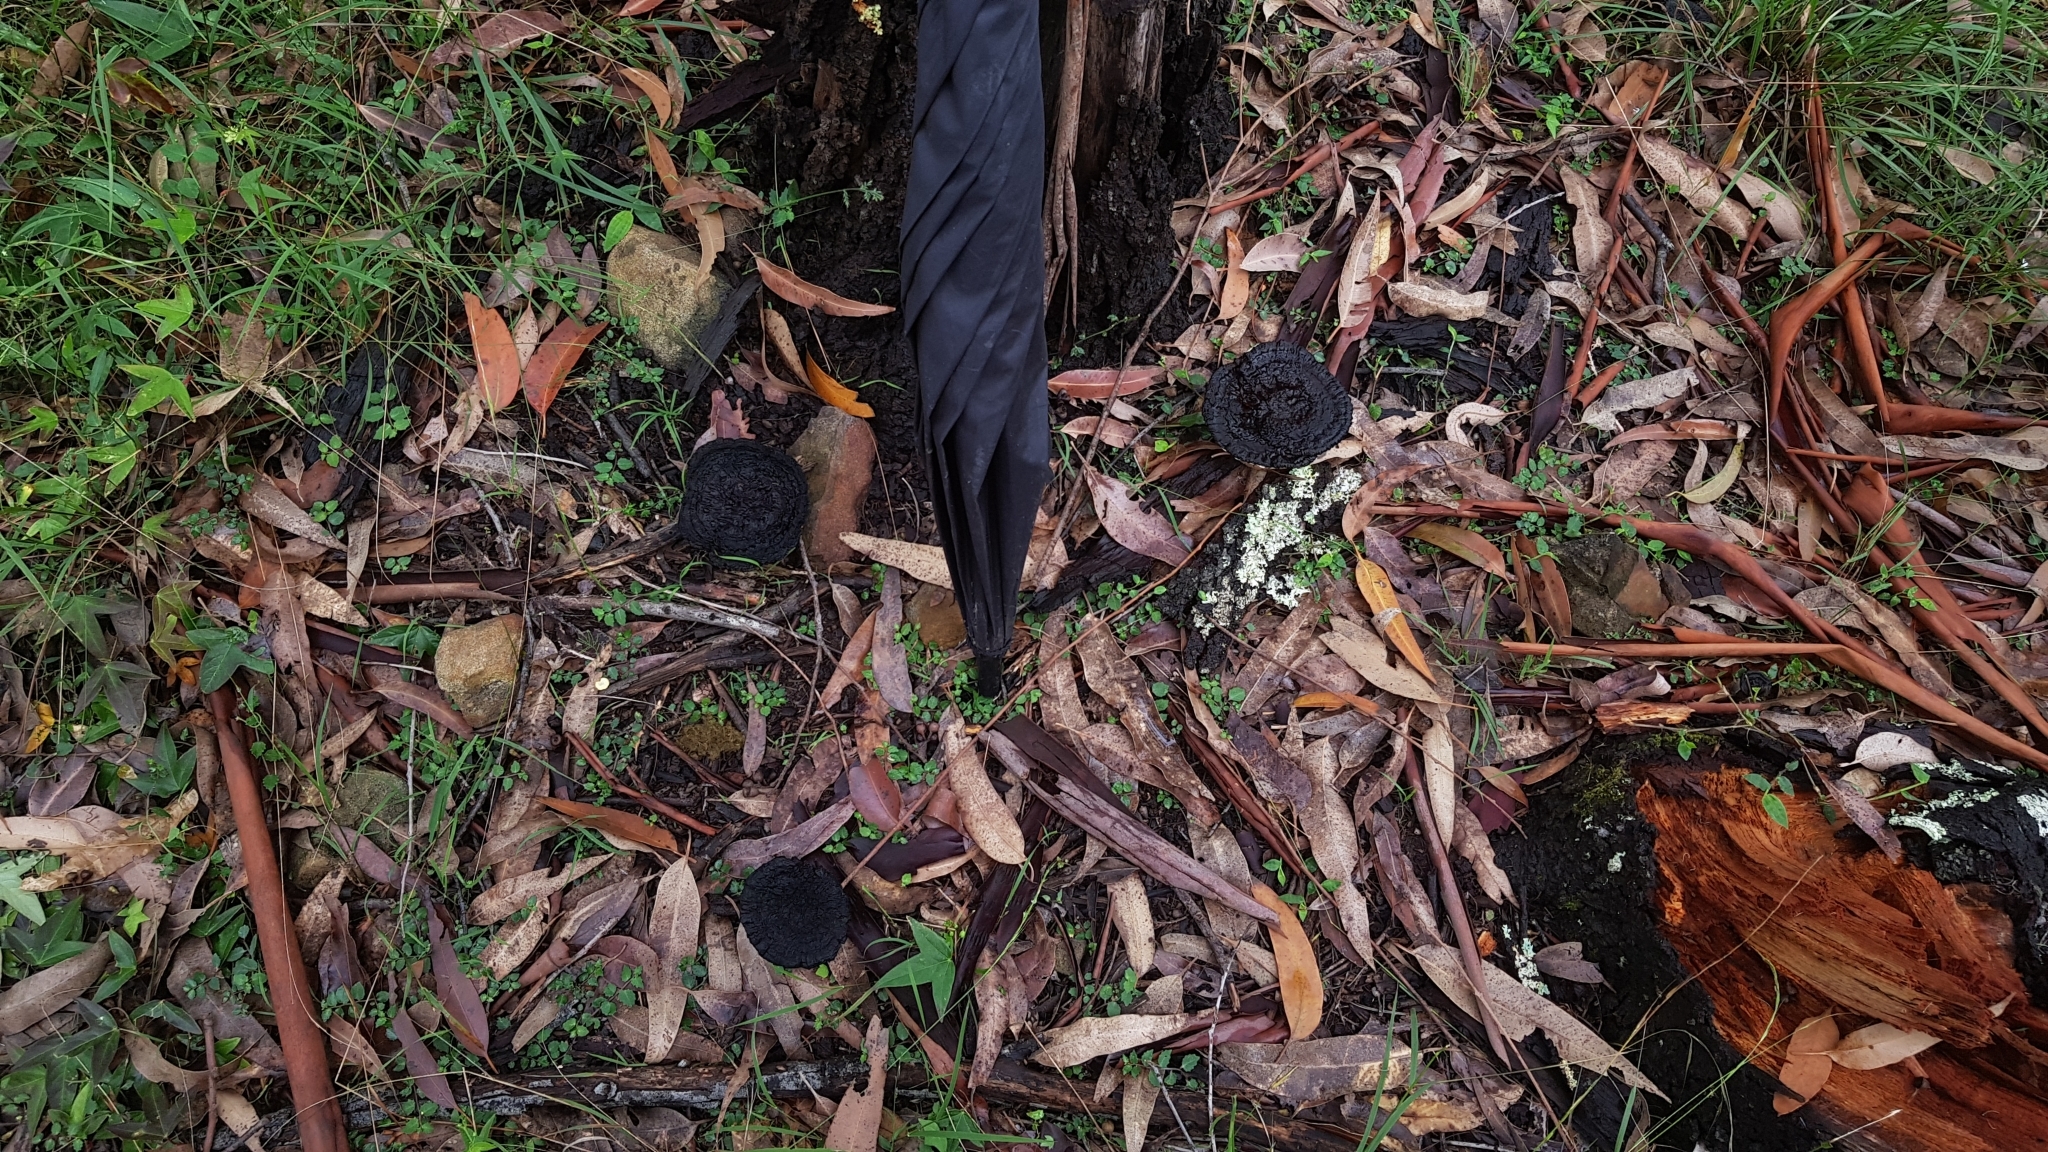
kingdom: Fungi
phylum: Basidiomycota
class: Agaricomycetes
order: Polyporales
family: Ganodermataceae
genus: Sanguinoderma
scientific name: Sanguinoderma rude
